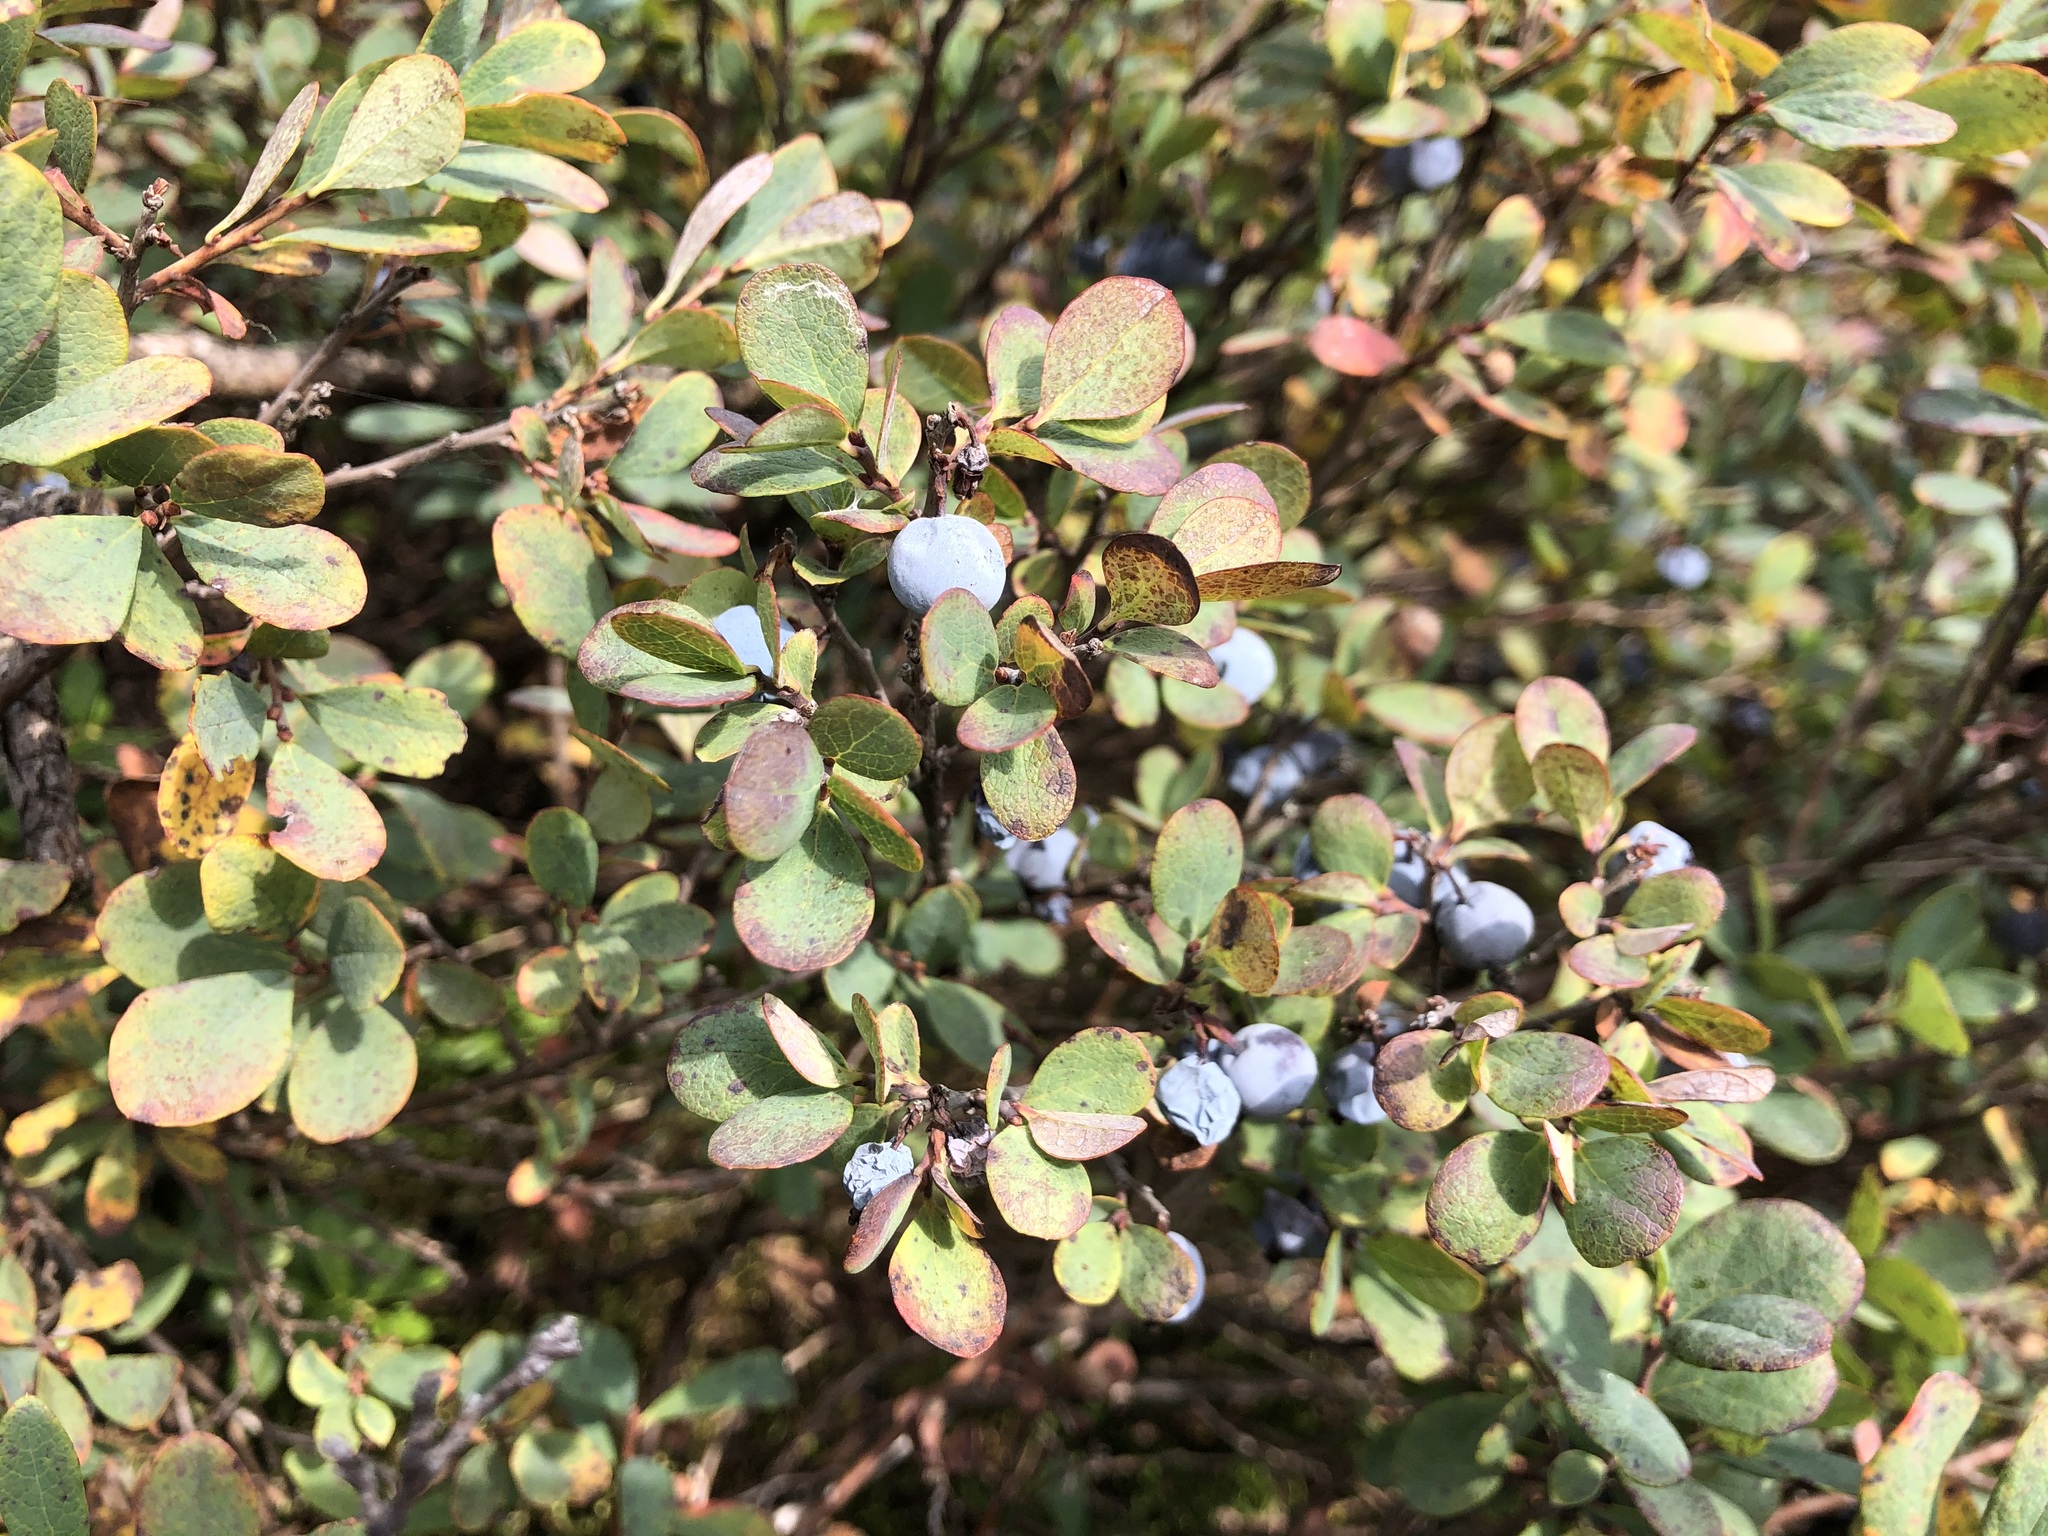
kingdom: Plantae
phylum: Tracheophyta
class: Magnoliopsida
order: Ericales
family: Ericaceae
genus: Vaccinium
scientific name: Vaccinium uliginosum
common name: Bog bilberry
